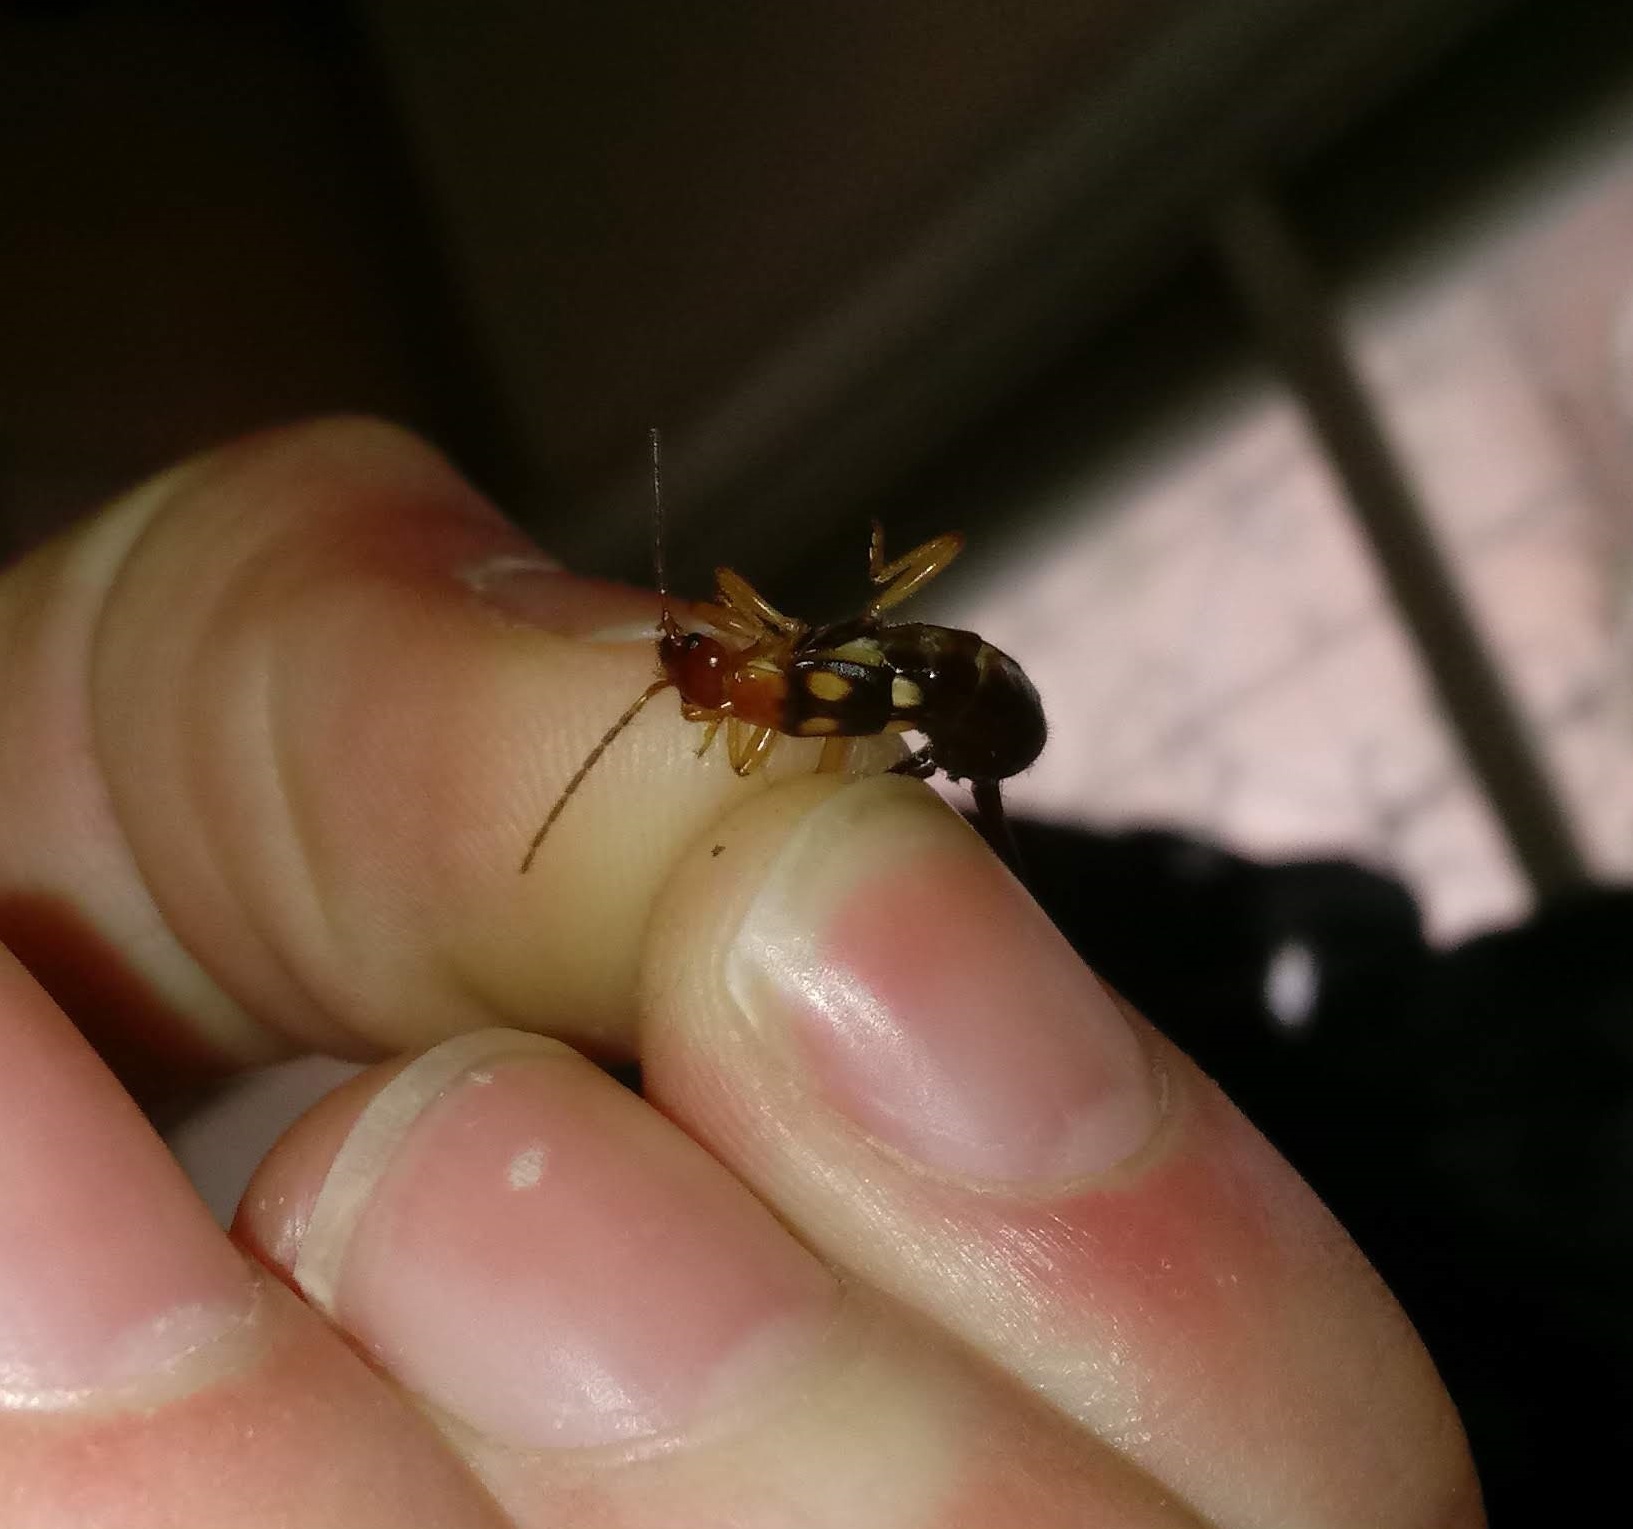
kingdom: Animalia
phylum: Arthropoda
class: Insecta
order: Dermaptera
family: Forficulidae
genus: Forficula
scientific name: Forficula smyrnensis
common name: Smyrna earwig
